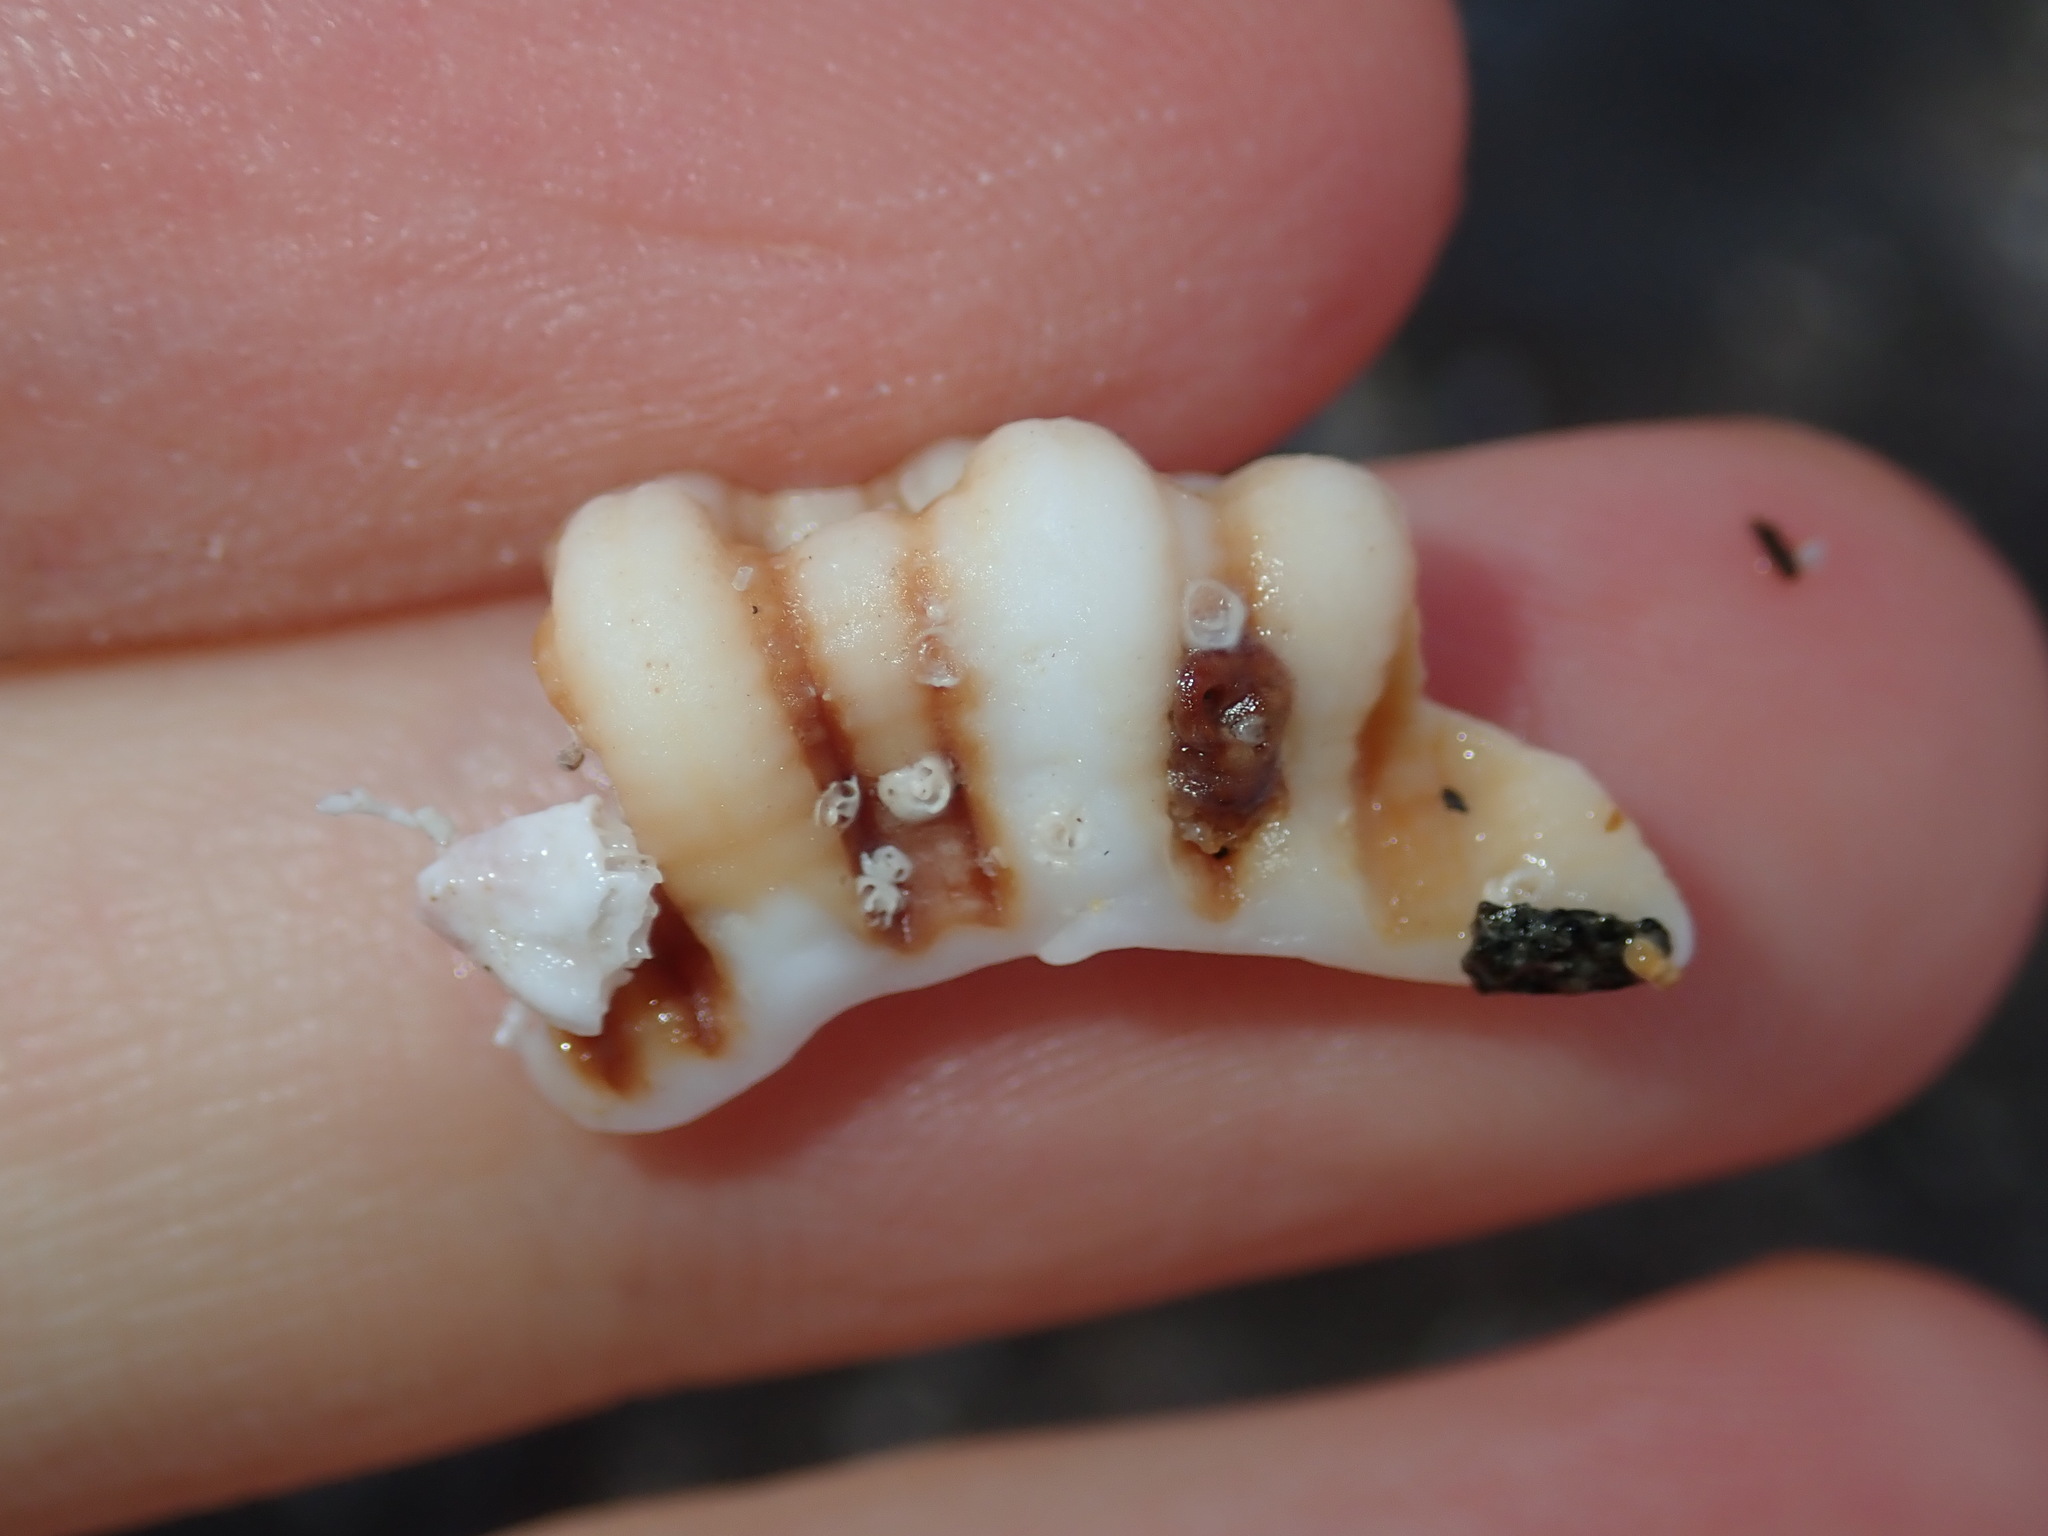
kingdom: Animalia
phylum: Mollusca
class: Gastropoda
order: Littorinimorpha
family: Cymatiidae
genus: Cabestana
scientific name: Cabestana spengleri
